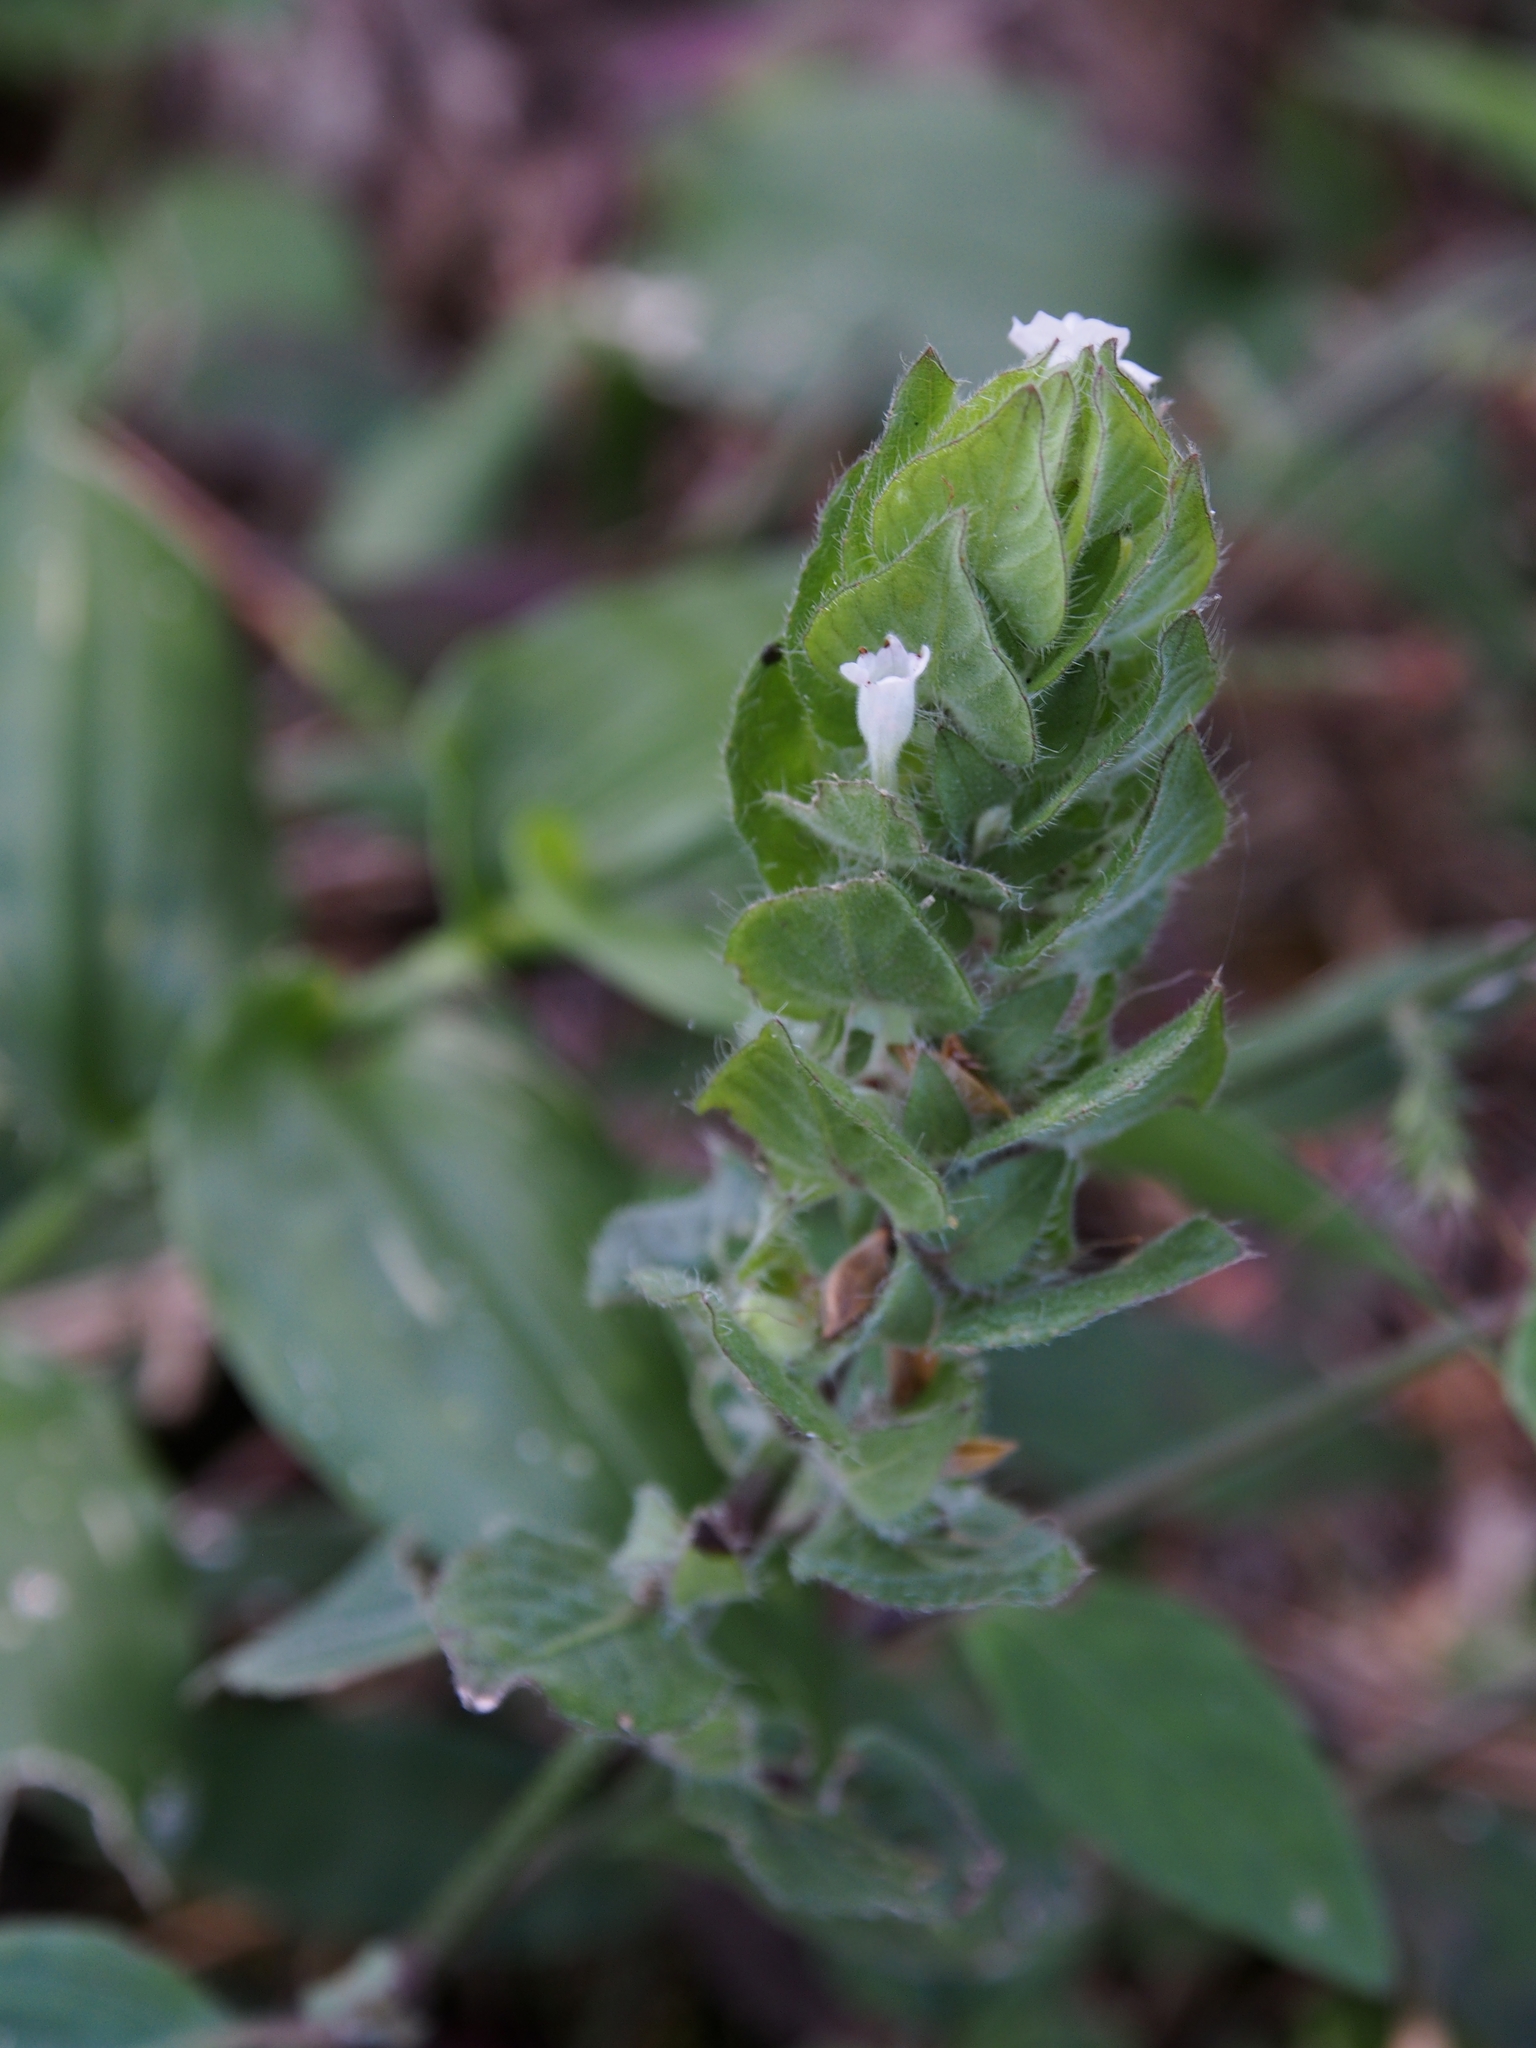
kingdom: Plantae
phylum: Tracheophyta
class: Magnoliopsida
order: Lamiales
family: Acanthaceae
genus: Ruellia
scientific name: Ruellia blechum
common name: Browne's blechum
